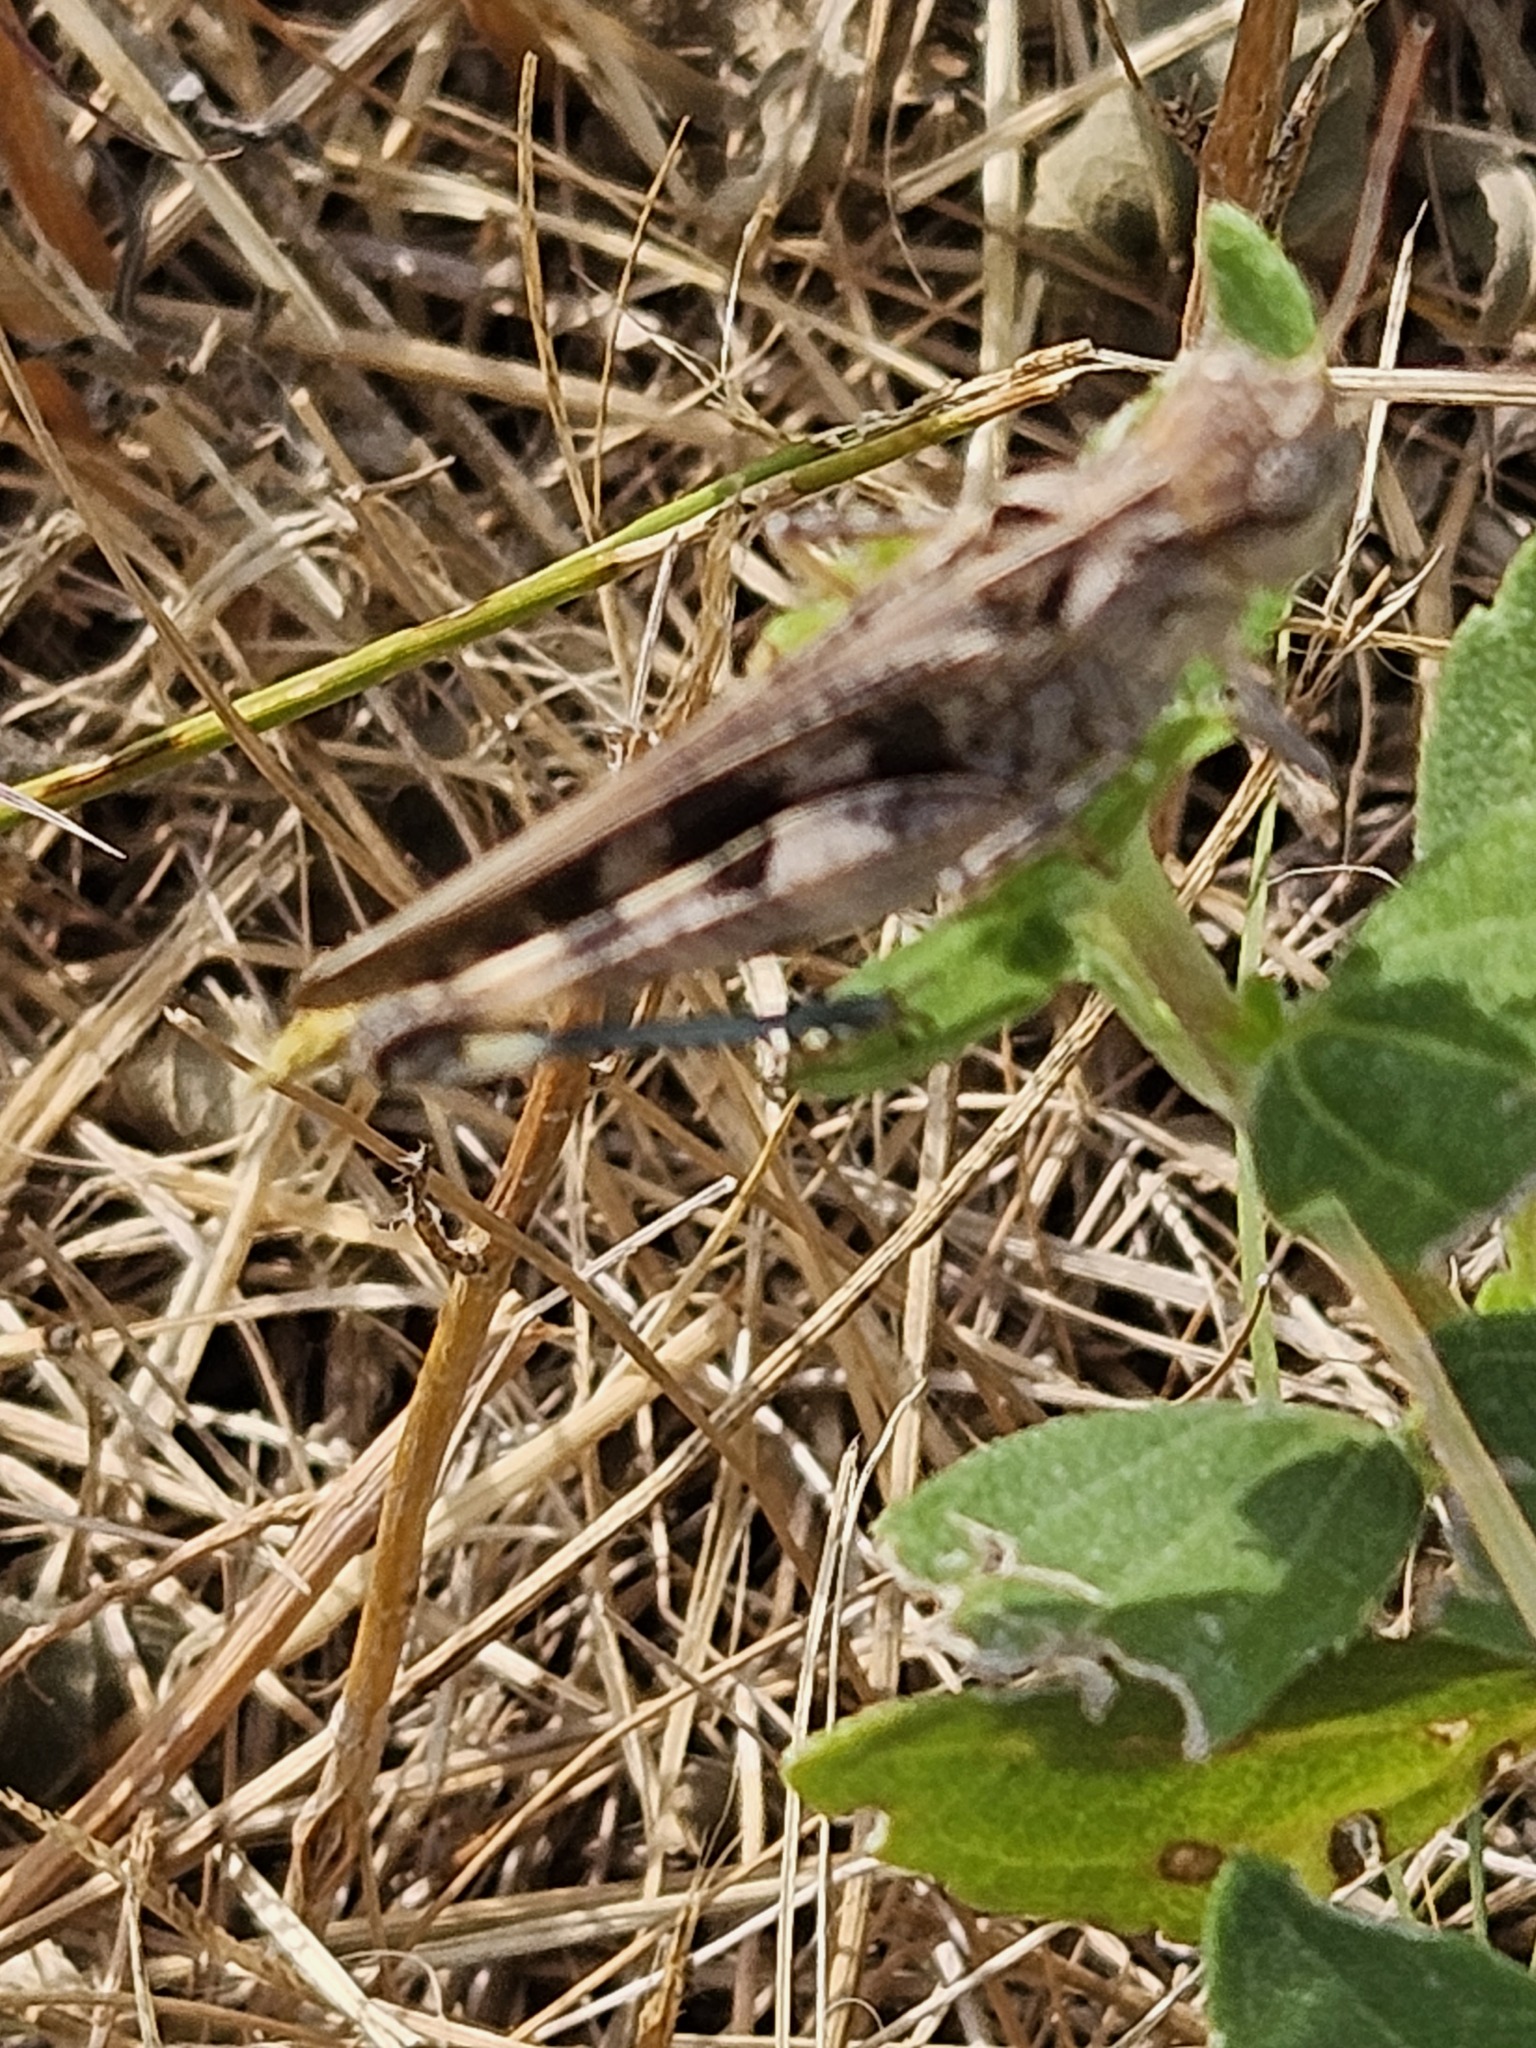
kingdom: Animalia
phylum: Arthropoda
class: Insecta
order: Orthoptera
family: Acrididae
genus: Encoptolophus
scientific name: Encoptolophus costalis
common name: Dusky grasshopper
